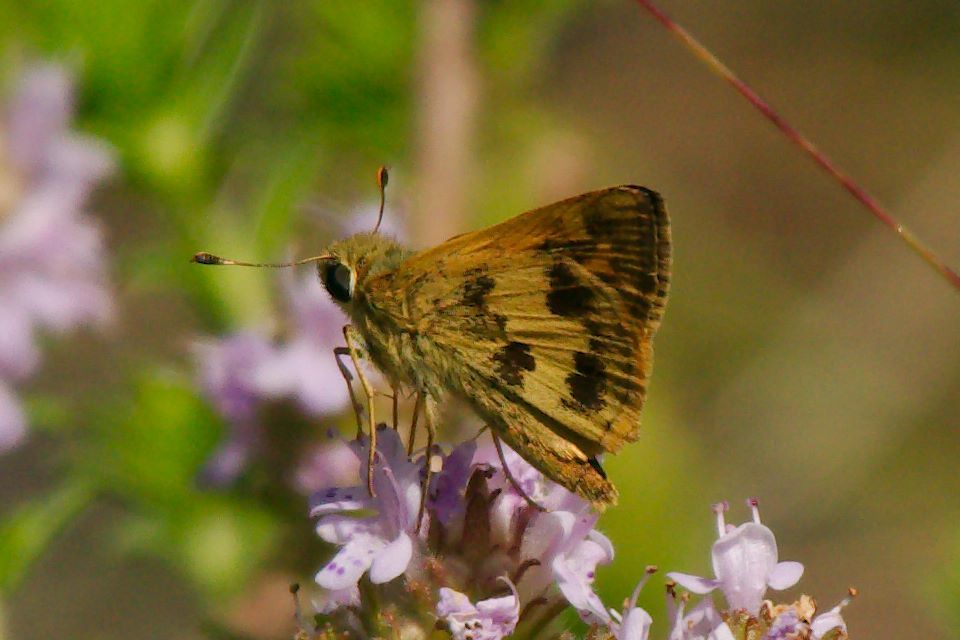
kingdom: Animalia
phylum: Arthropoda
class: Insecta
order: Lepidoptera
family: Hesperiidae
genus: Polites
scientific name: Polites vibex
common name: Whirlabout
